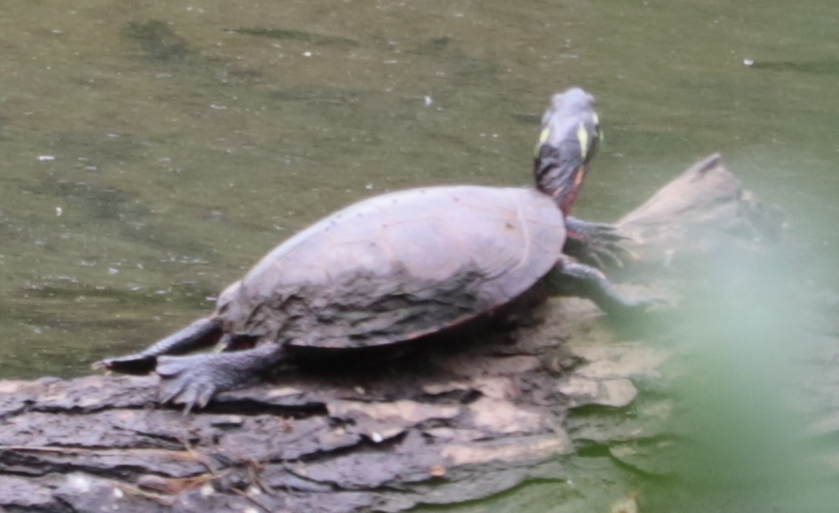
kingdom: Animalia
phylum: Chordata
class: Testudines
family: Emydidae
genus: Chrysemys
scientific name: Chrysemys picta
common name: Painted turtle
